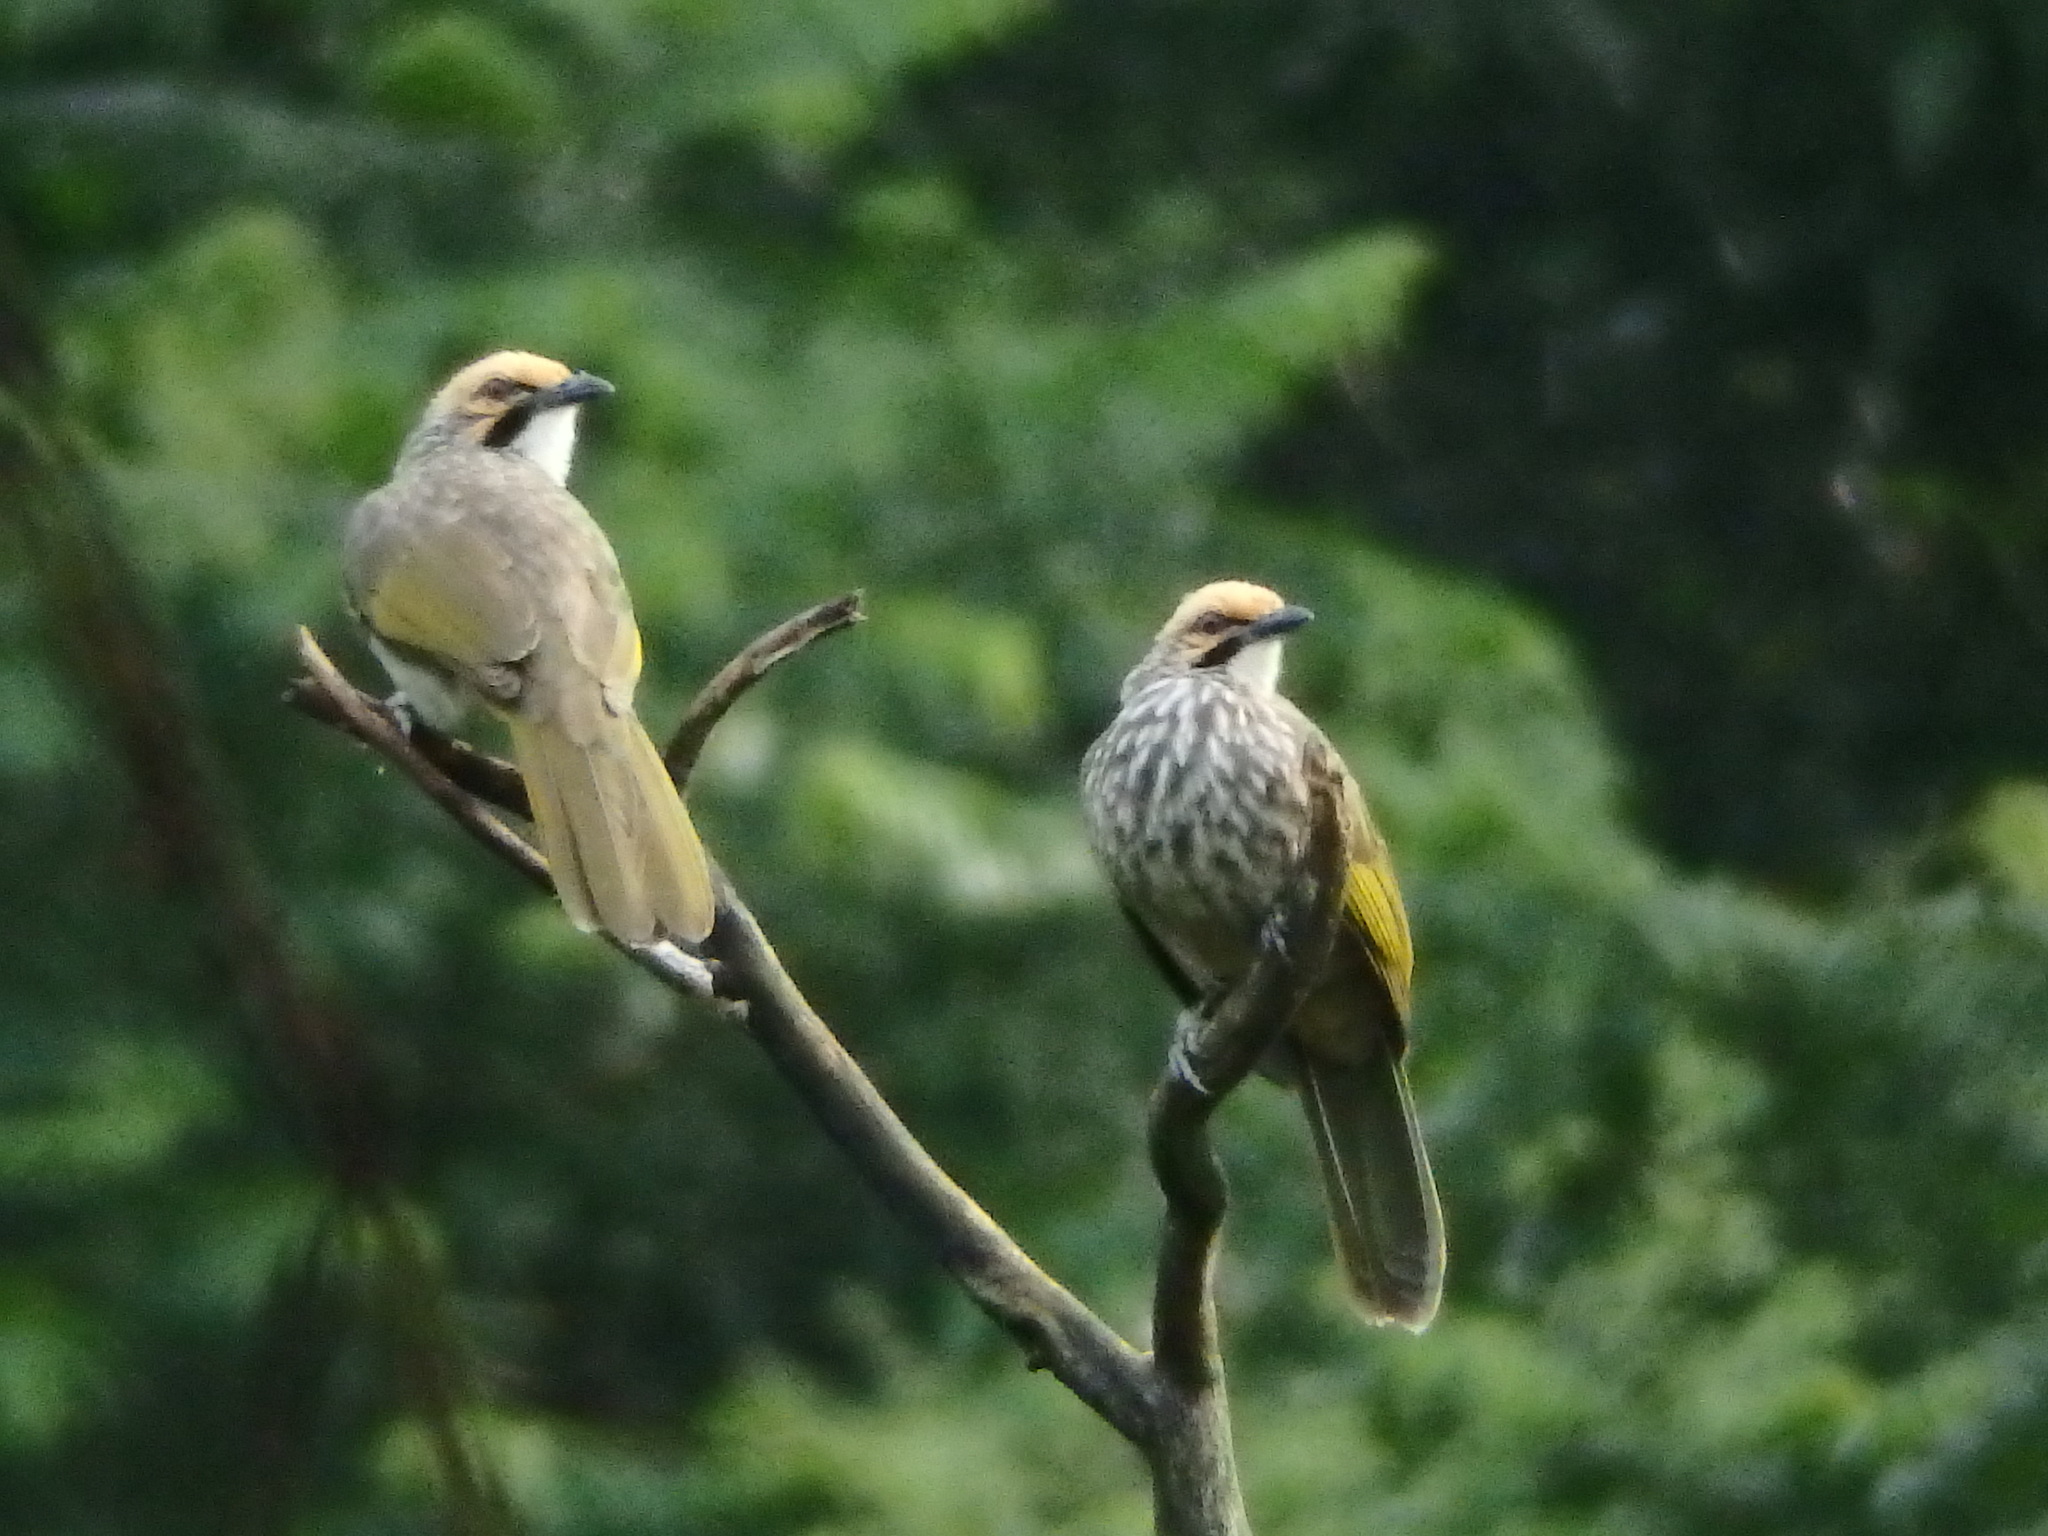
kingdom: Animalia
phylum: Chordata
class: Aves
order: Passeriformes
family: Pycnonotidae
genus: Pycnonotus
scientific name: Pycnonotus zeylanicus
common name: Straw-headed bulbul
